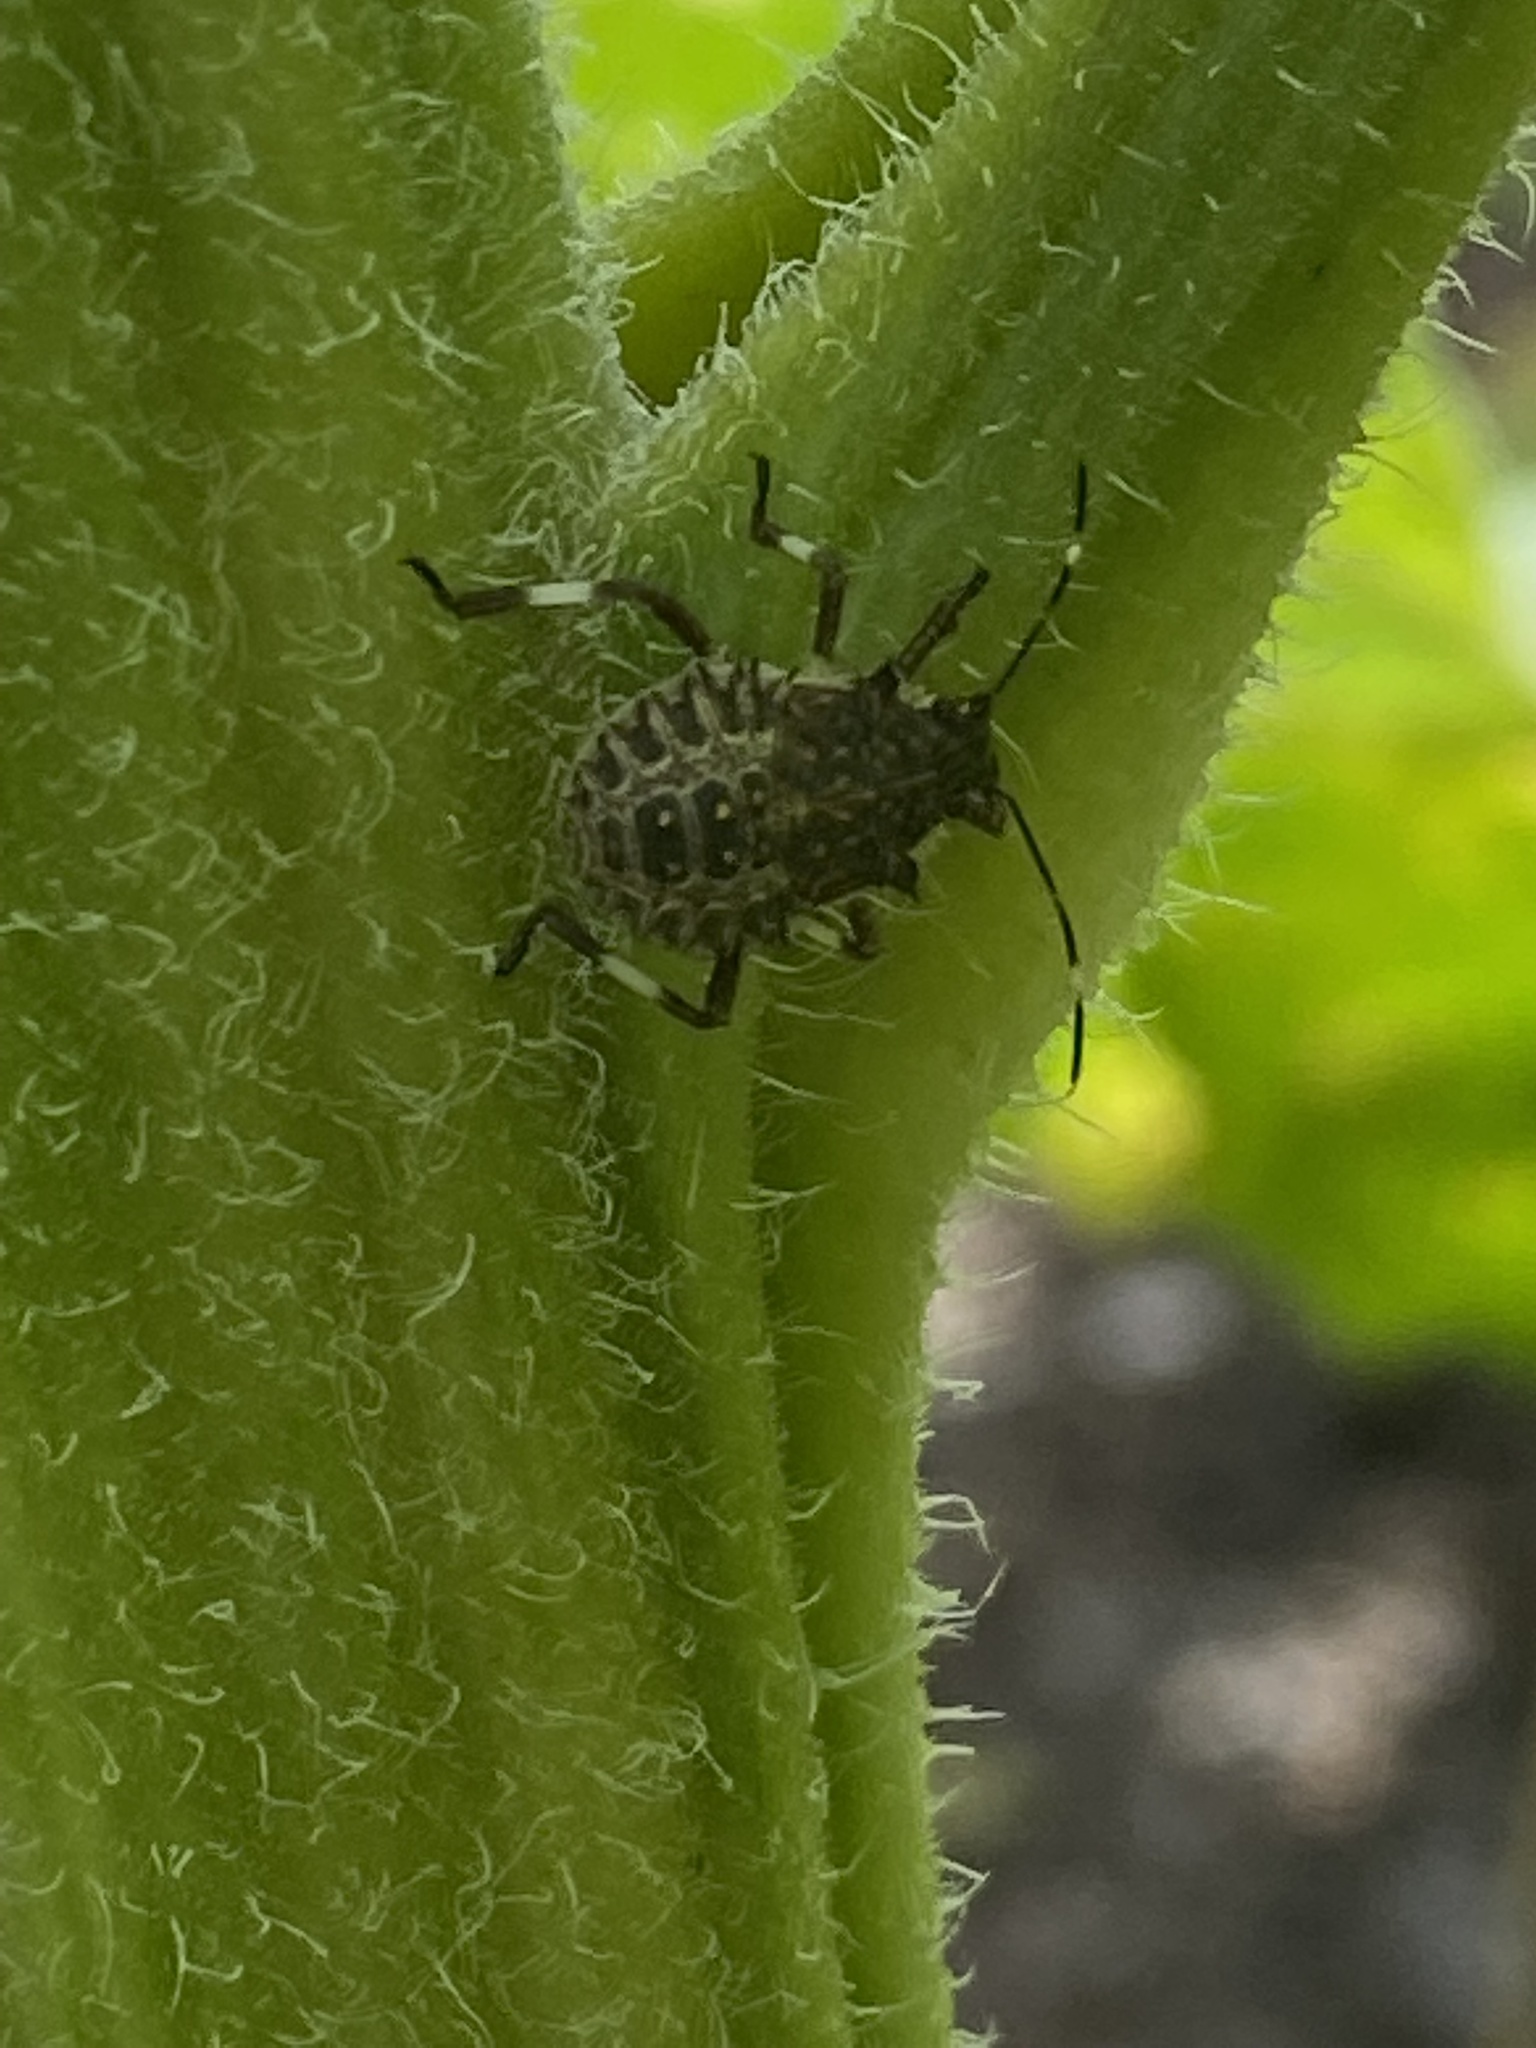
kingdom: Animalia
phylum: Arthropoda
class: Insecta
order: Hemiptera
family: Pentatomidae
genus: Halyomorpha
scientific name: Halyomorpha halys
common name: Brown marmorated stink bug
